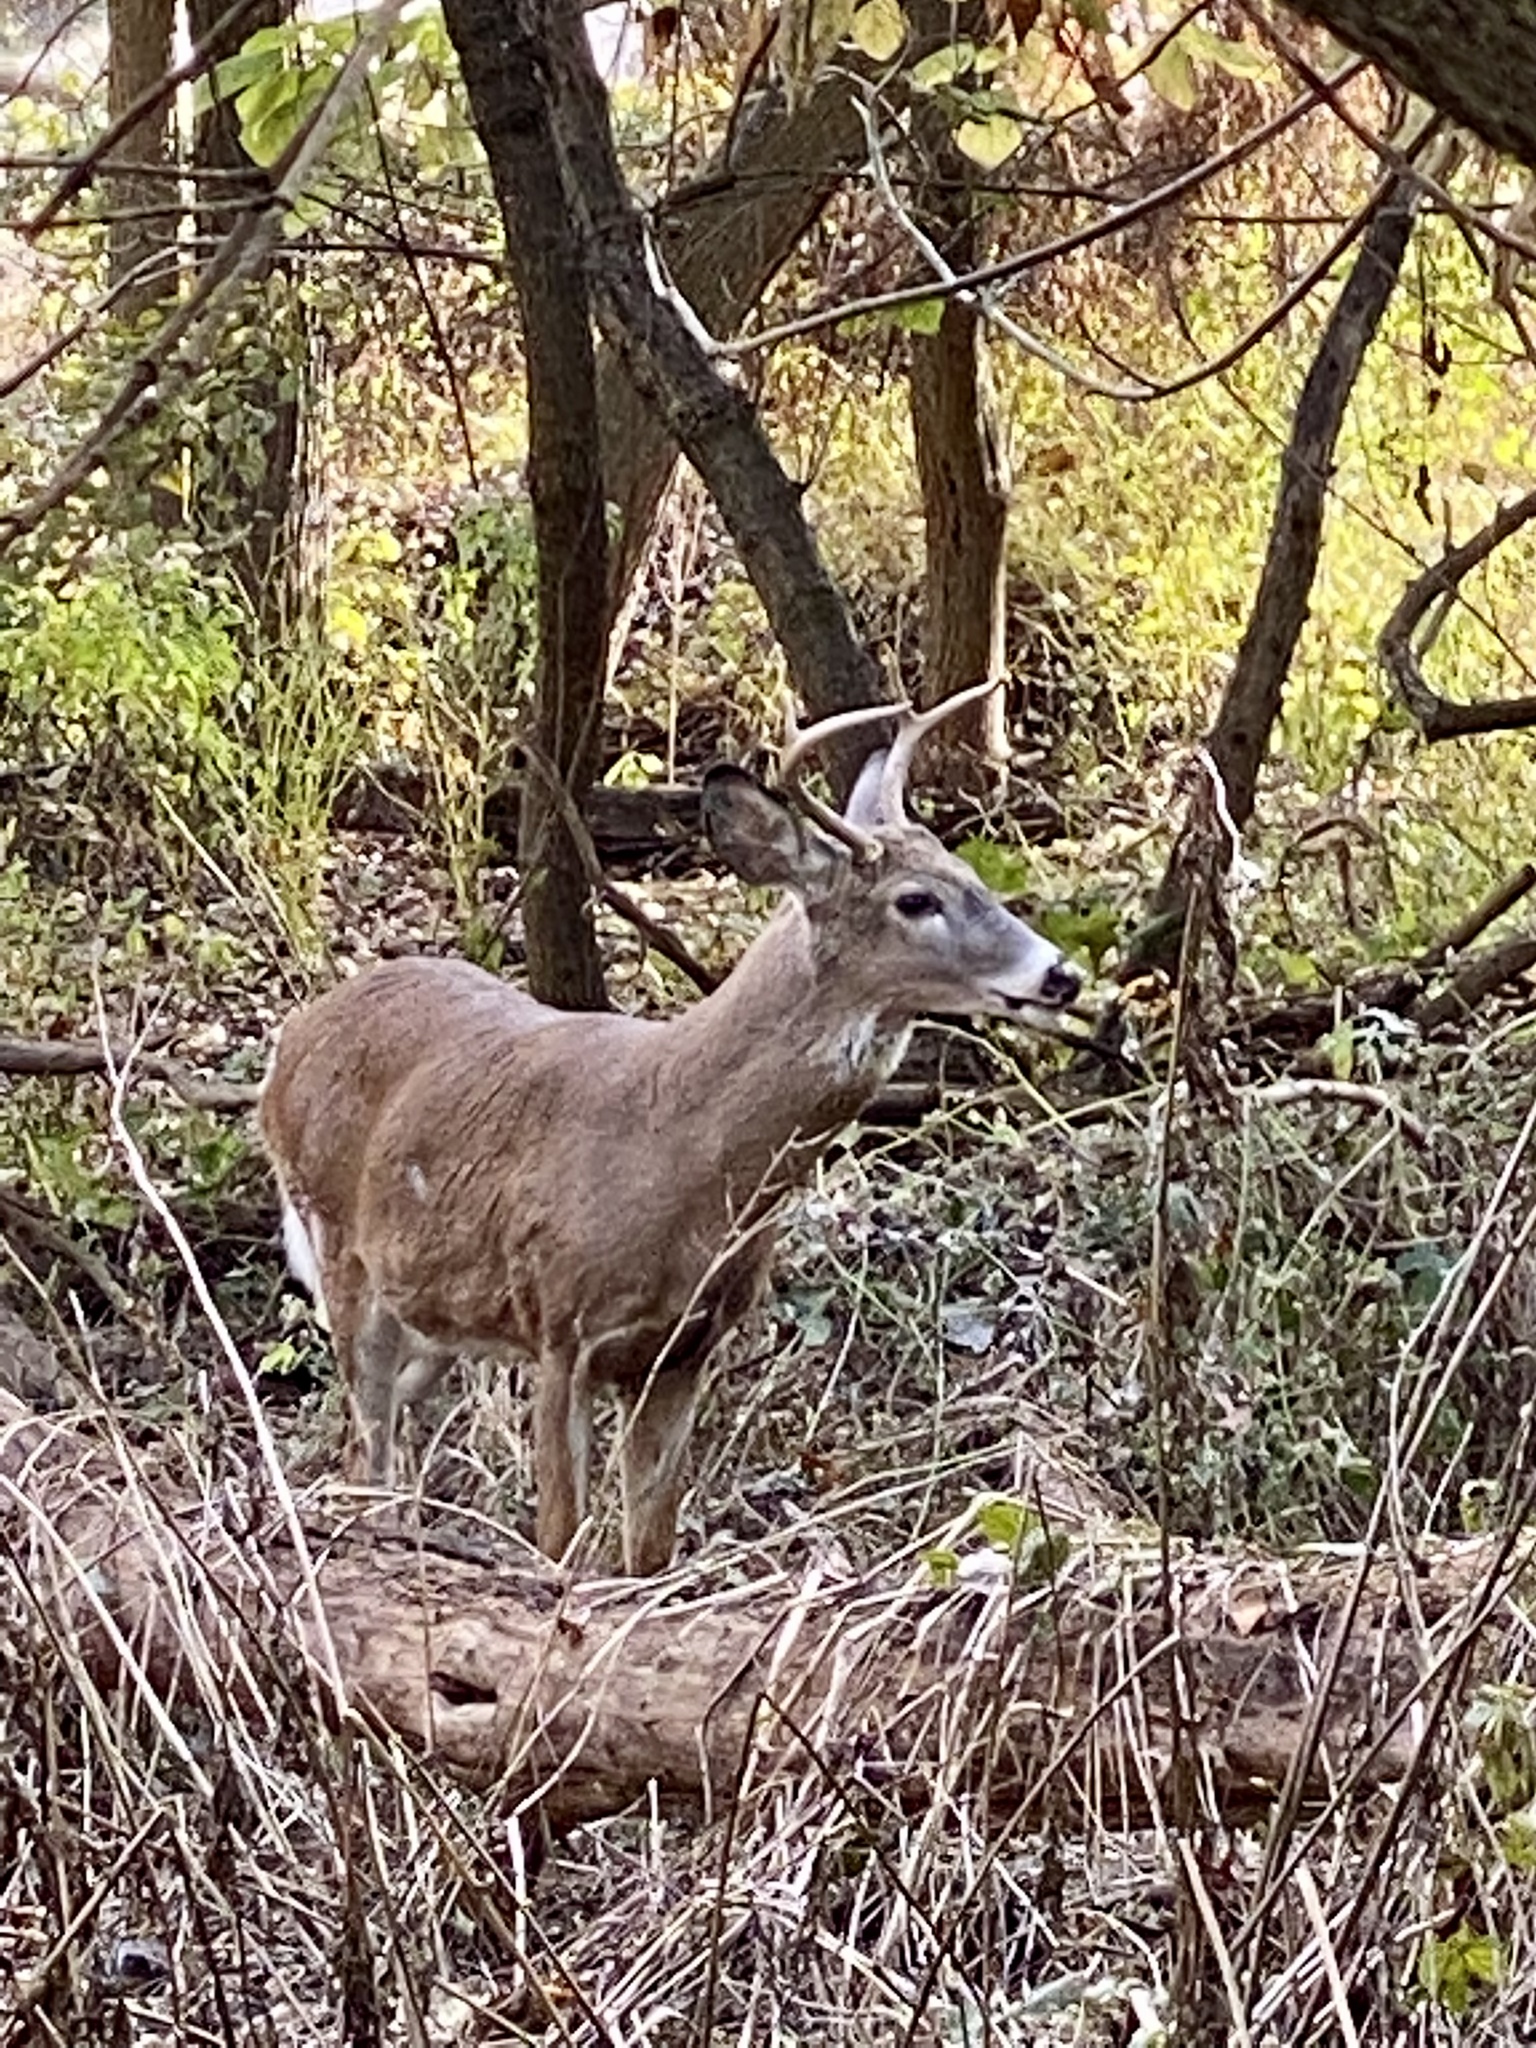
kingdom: Animalia
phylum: Chordata
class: Mammalia
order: Artiodactyla
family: Cervidae
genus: Odocoileus
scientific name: Odocoileus virginianus
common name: White-tailed deer
